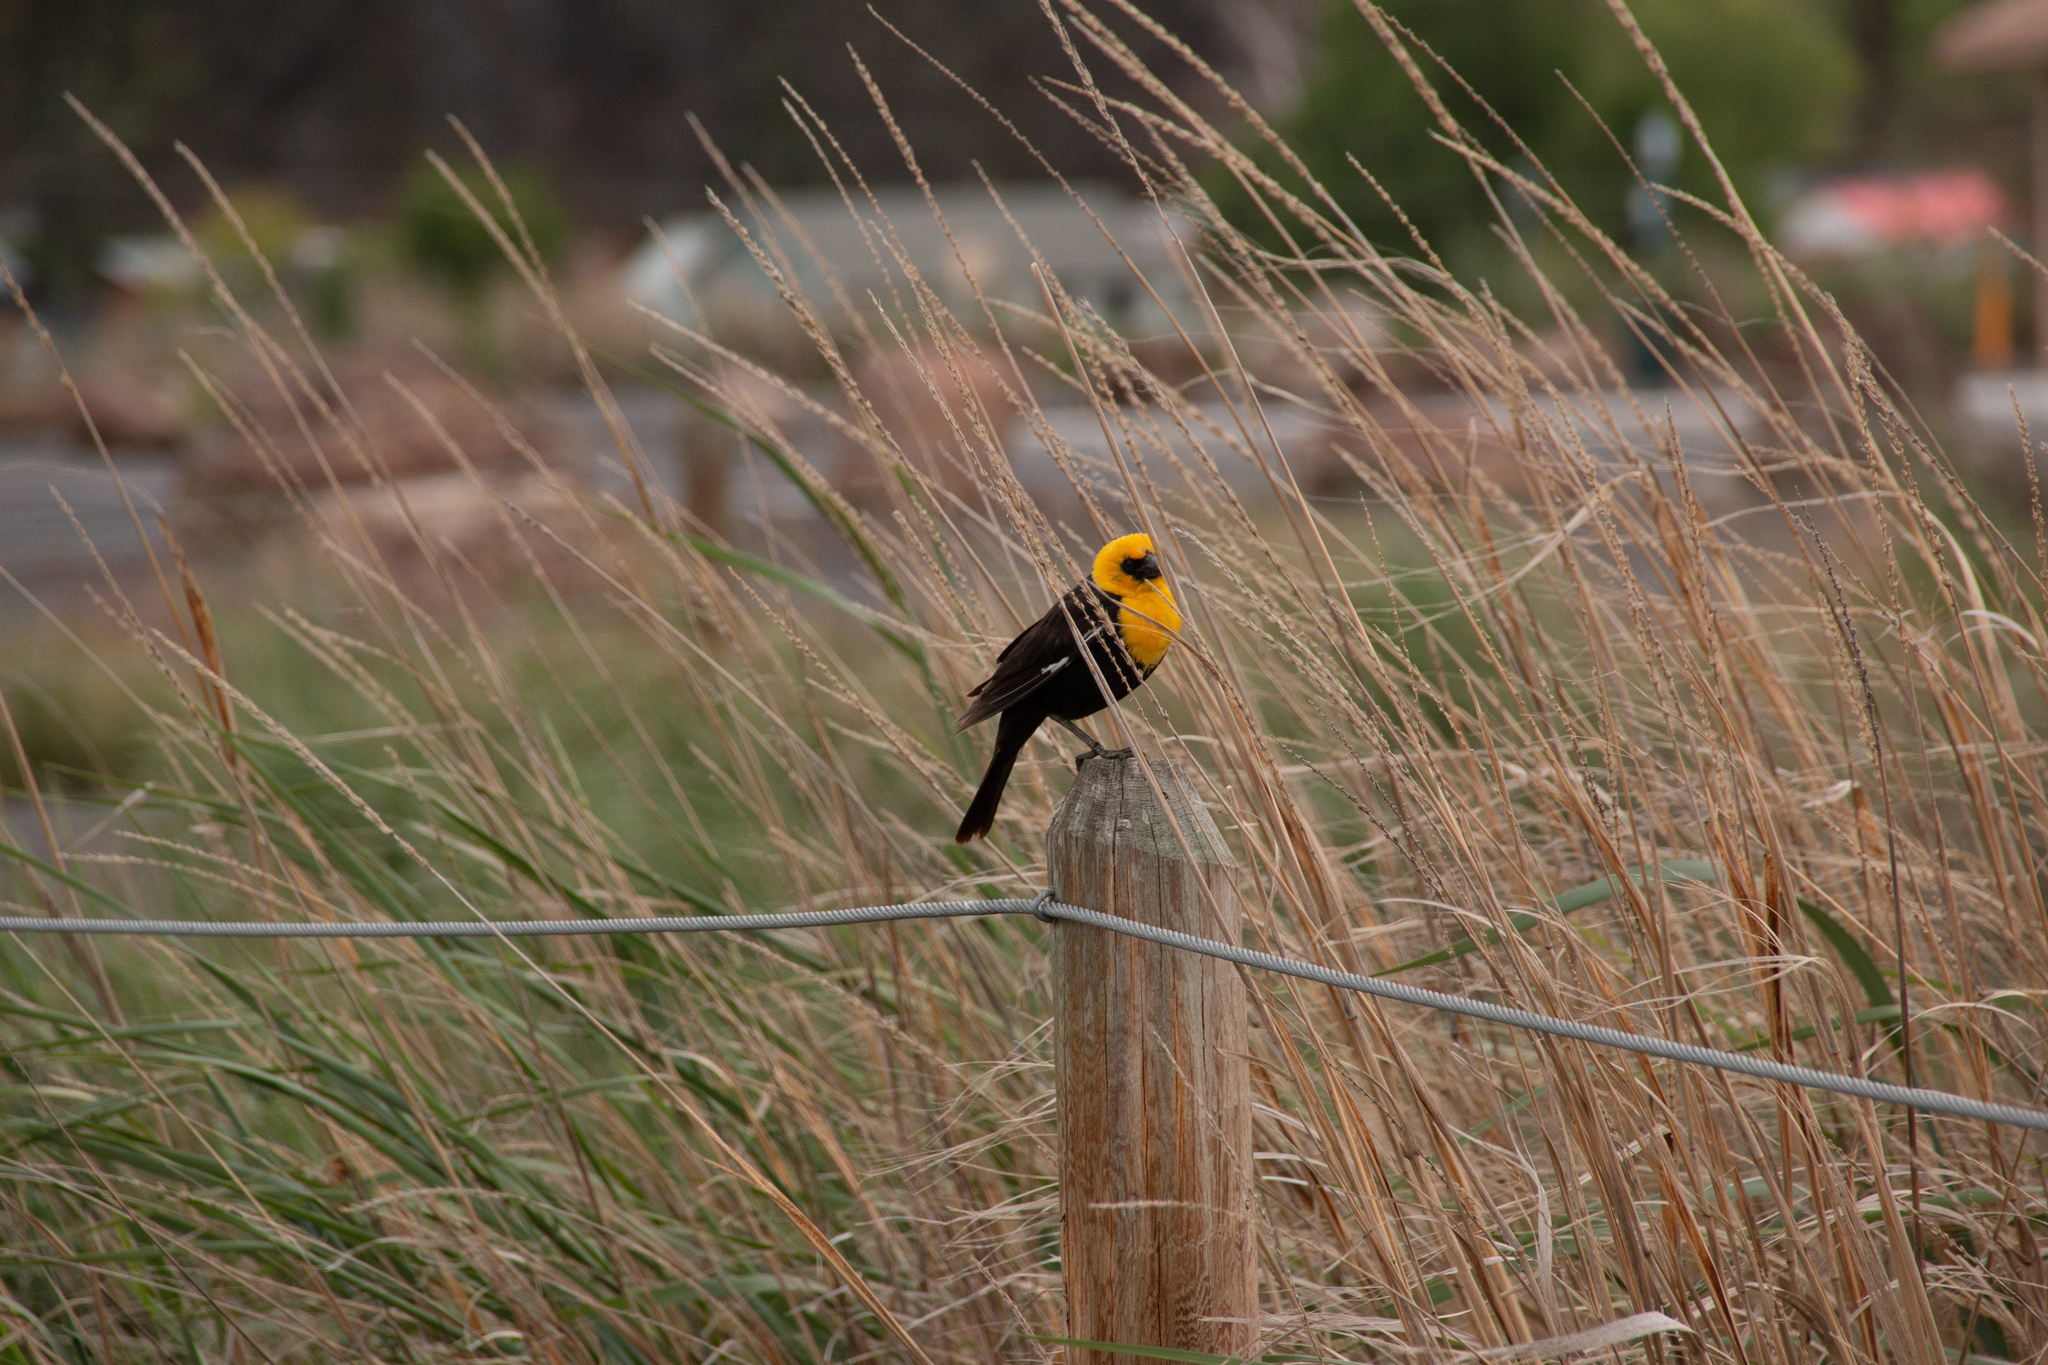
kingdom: Animalia
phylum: Chordata
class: Aves
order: Passeriformes
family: Icteridae
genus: Xanthocephalus
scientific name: Xanthocephalus xanthocephalus
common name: Yellow-headed blackbird
